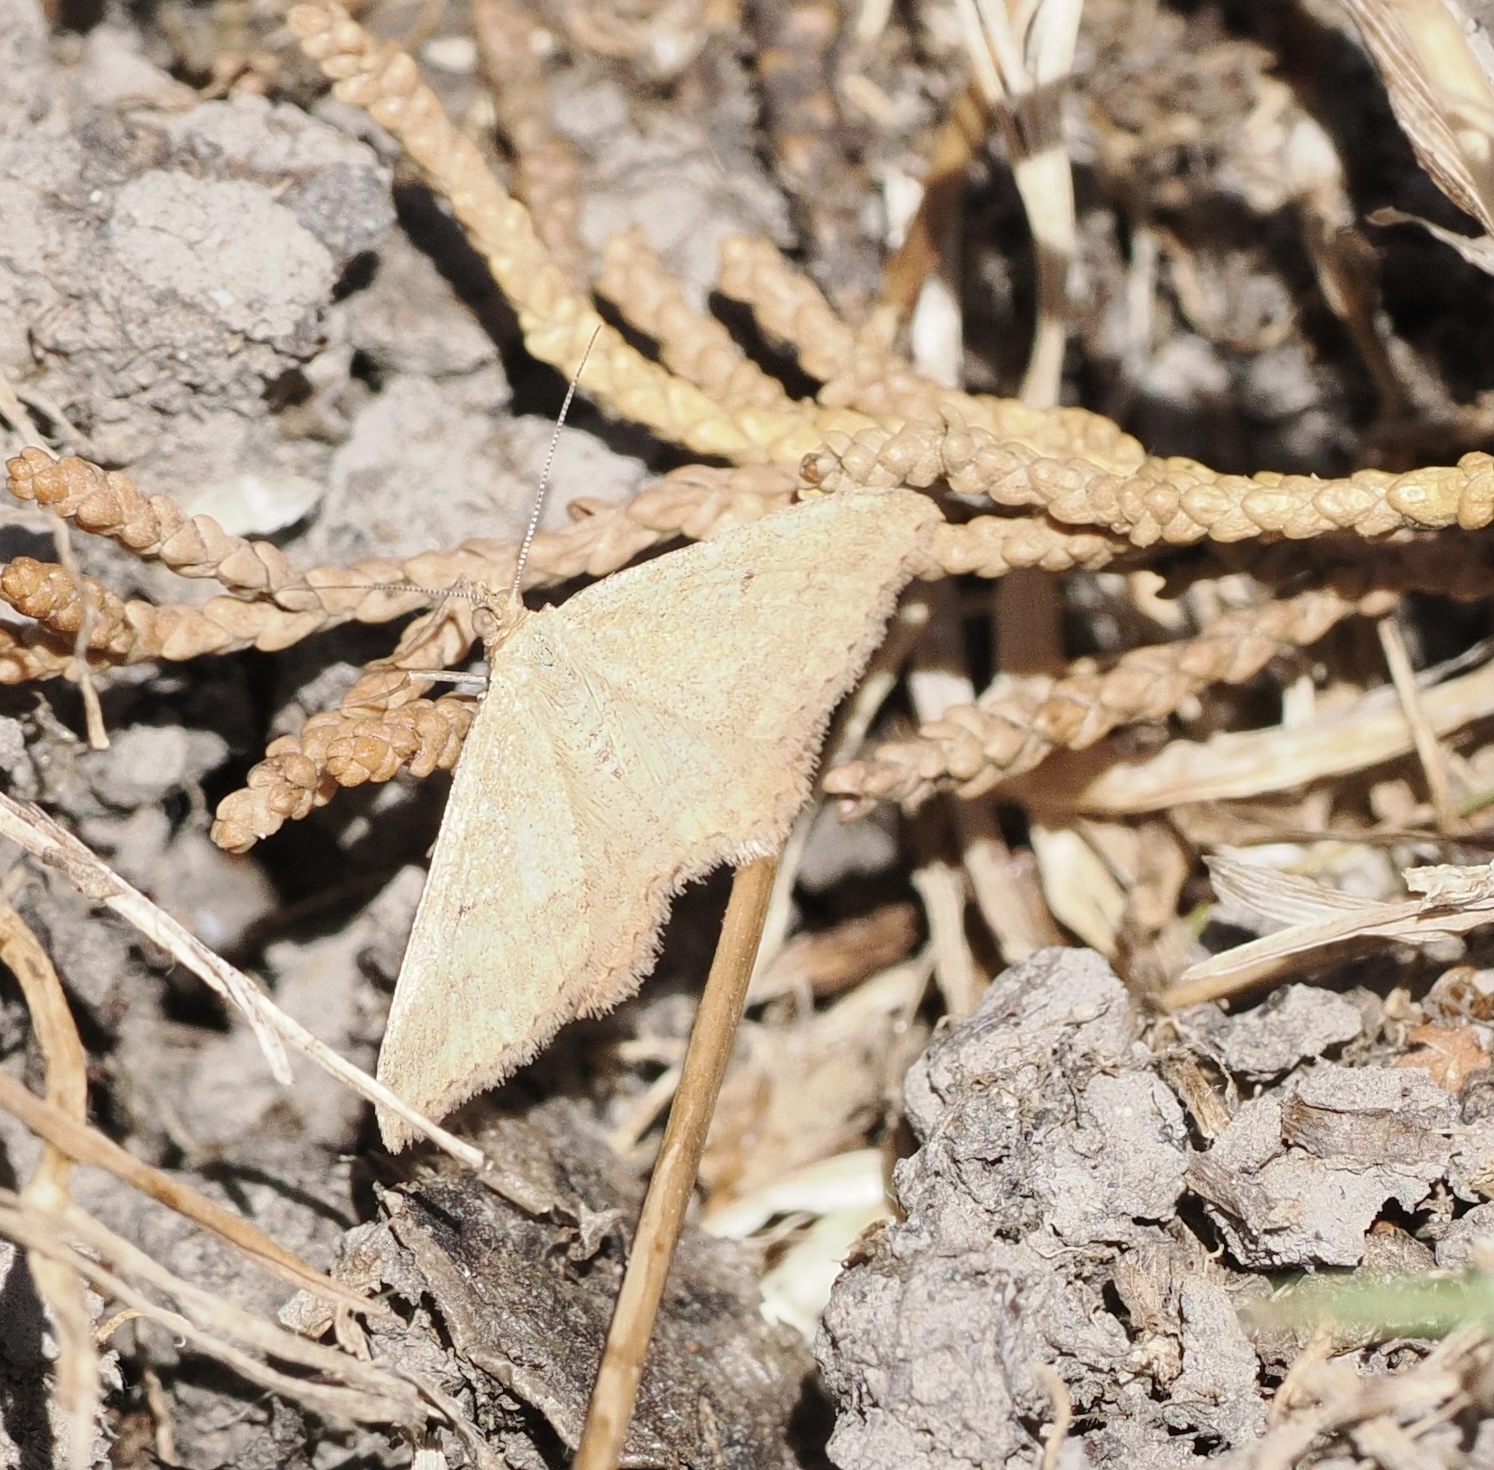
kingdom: Animalia
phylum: Arthropoda
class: Insecta
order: Lepidoptera
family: Geometridae
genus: Scopula
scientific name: Scopula rubraria
